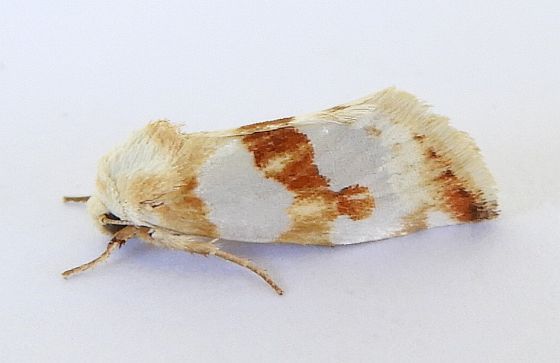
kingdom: Animalia
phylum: Arthropoda
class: Insecta
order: Lepidoptera
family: Noctuidae
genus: Schinia
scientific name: Schinia ciliata
